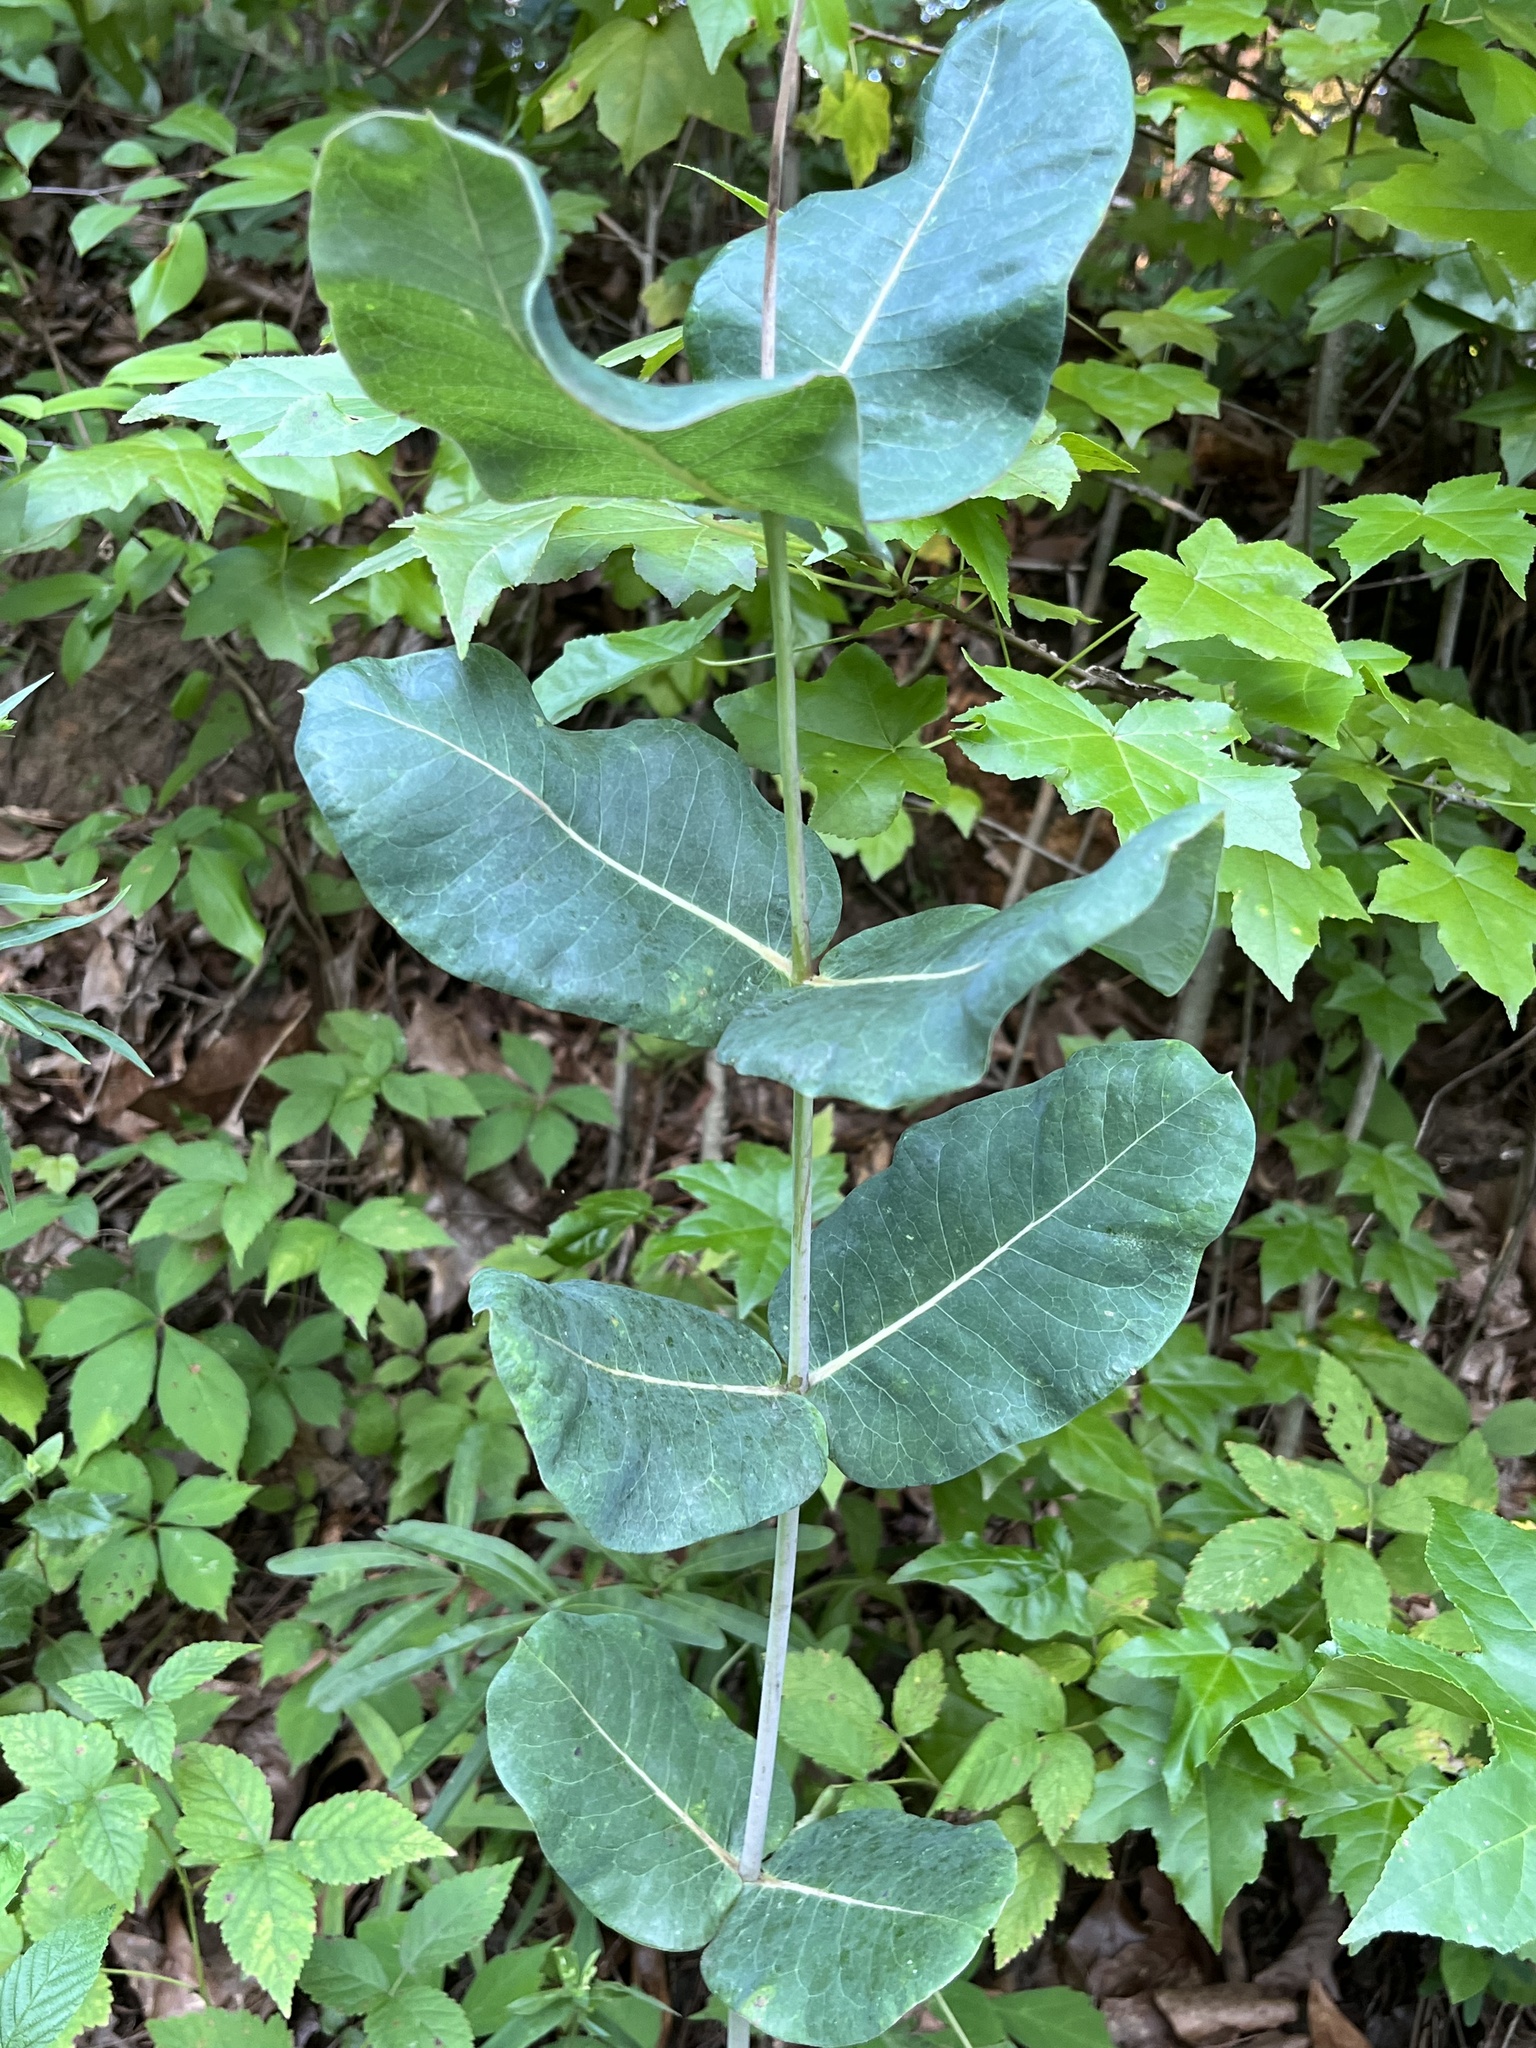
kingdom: Plantae
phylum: Tracheophyta
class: Magnoliopsida
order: Gentianales
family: Apocynaceae
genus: Asclepias
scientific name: Asclepias amplexicaulis
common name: Blunt-leaf milkweed
